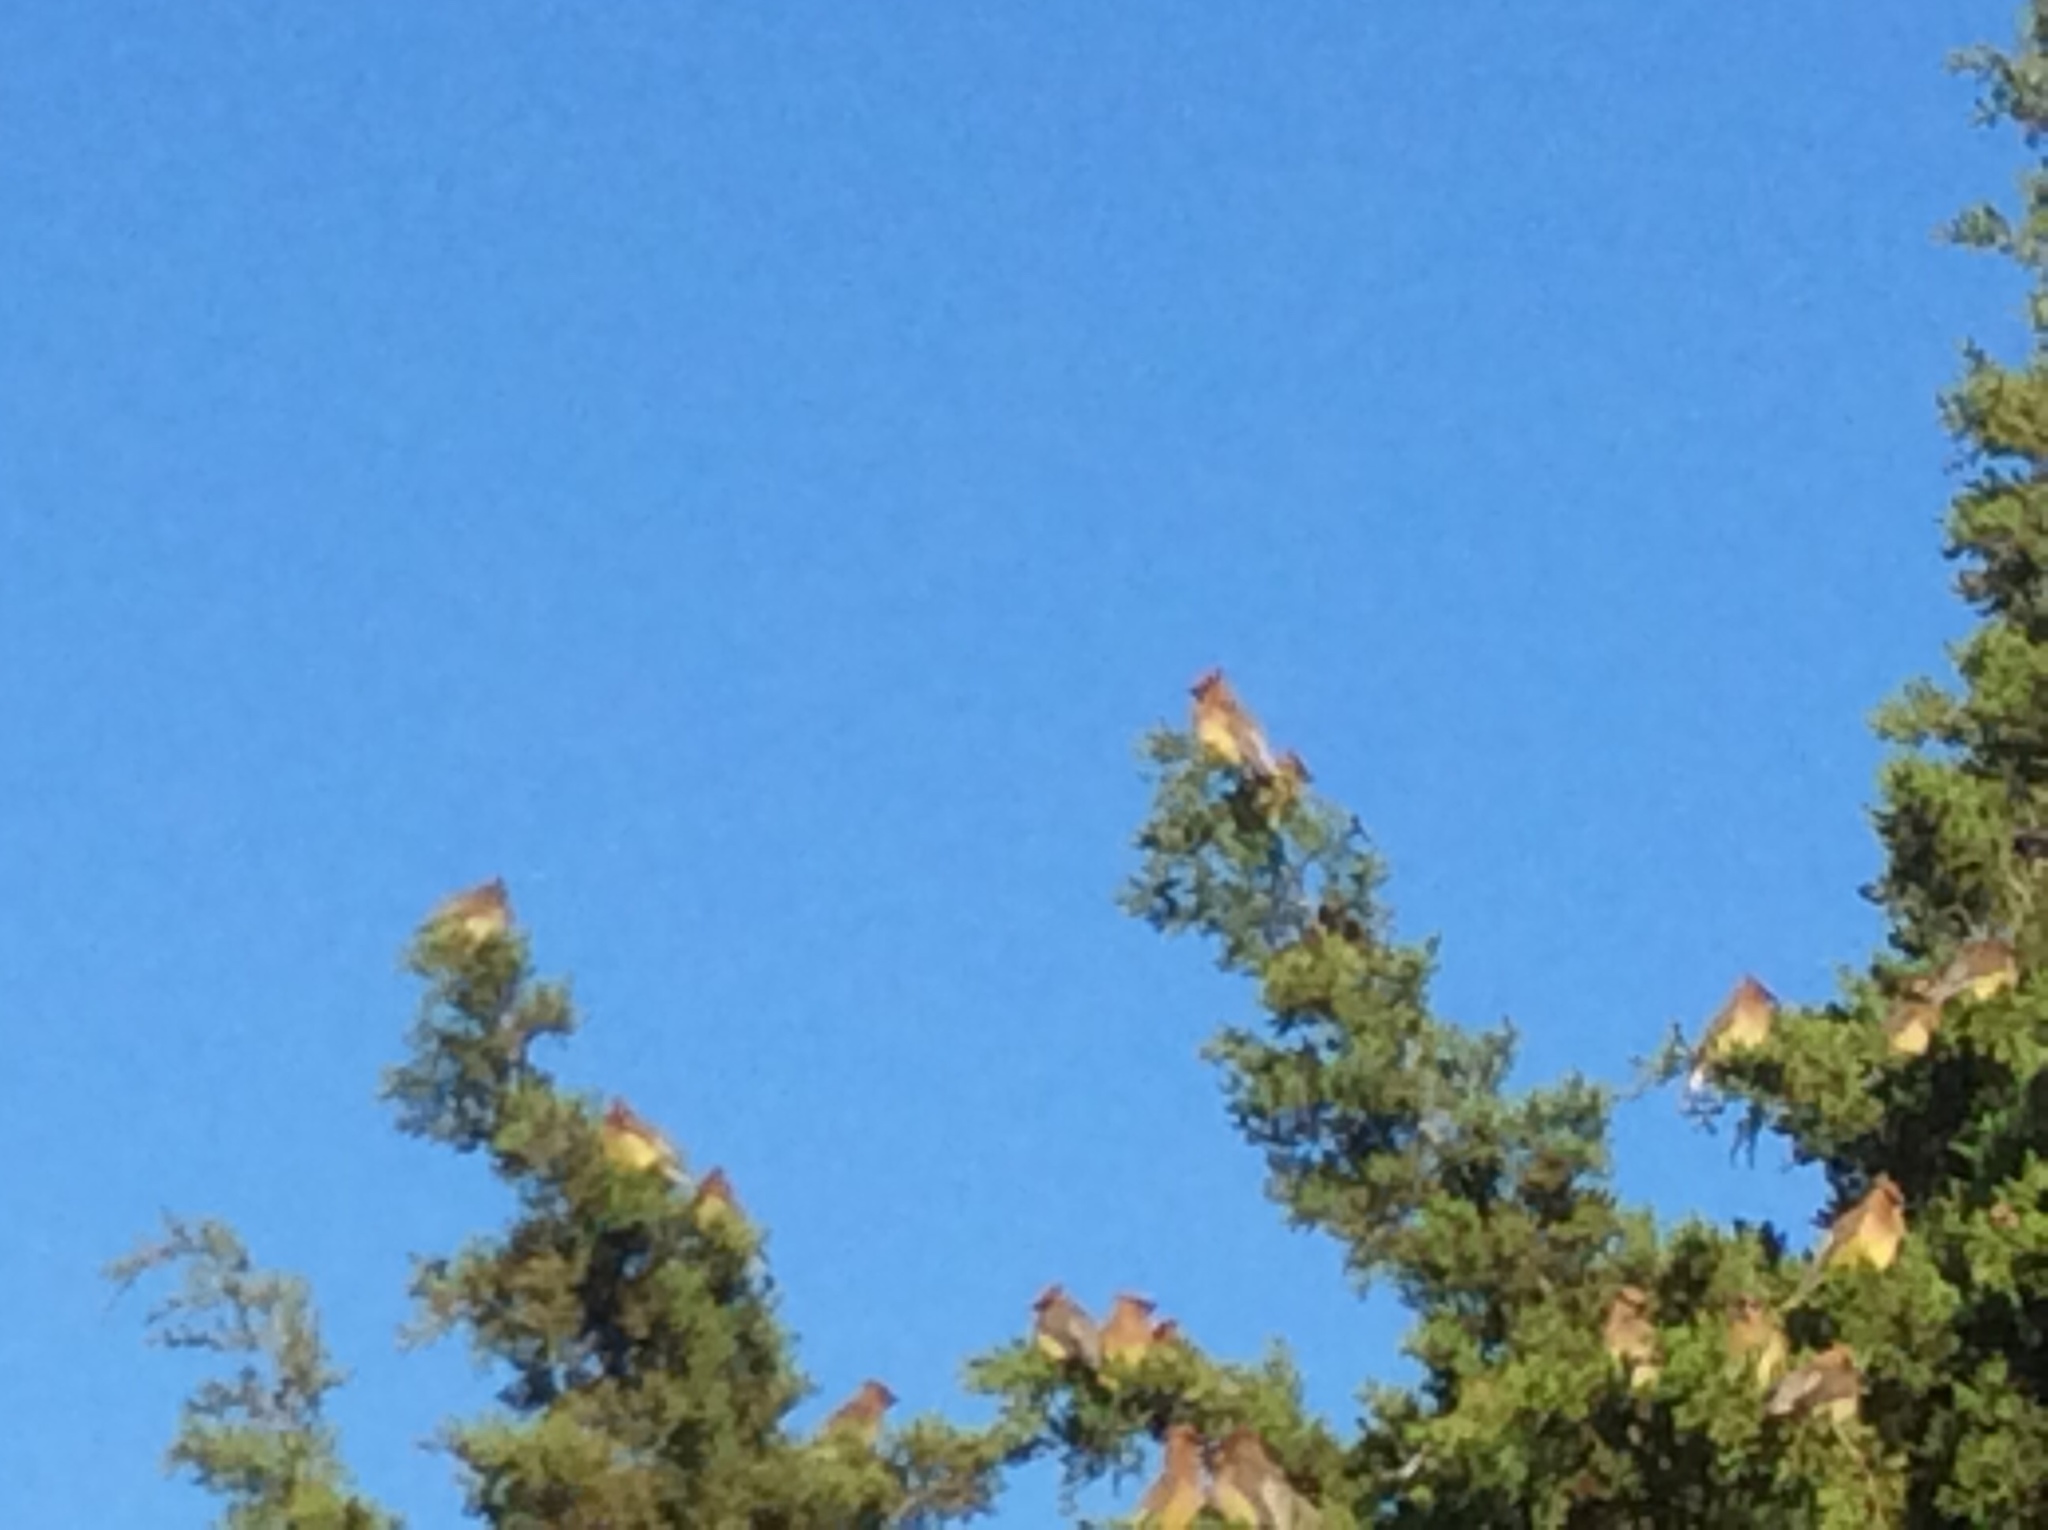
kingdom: Animalia
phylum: Chordata
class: Aves
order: Passeriformes
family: Bombycillidae
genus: Bombycilla
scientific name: Bombycilla cedrorum
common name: Cedar waxwing
